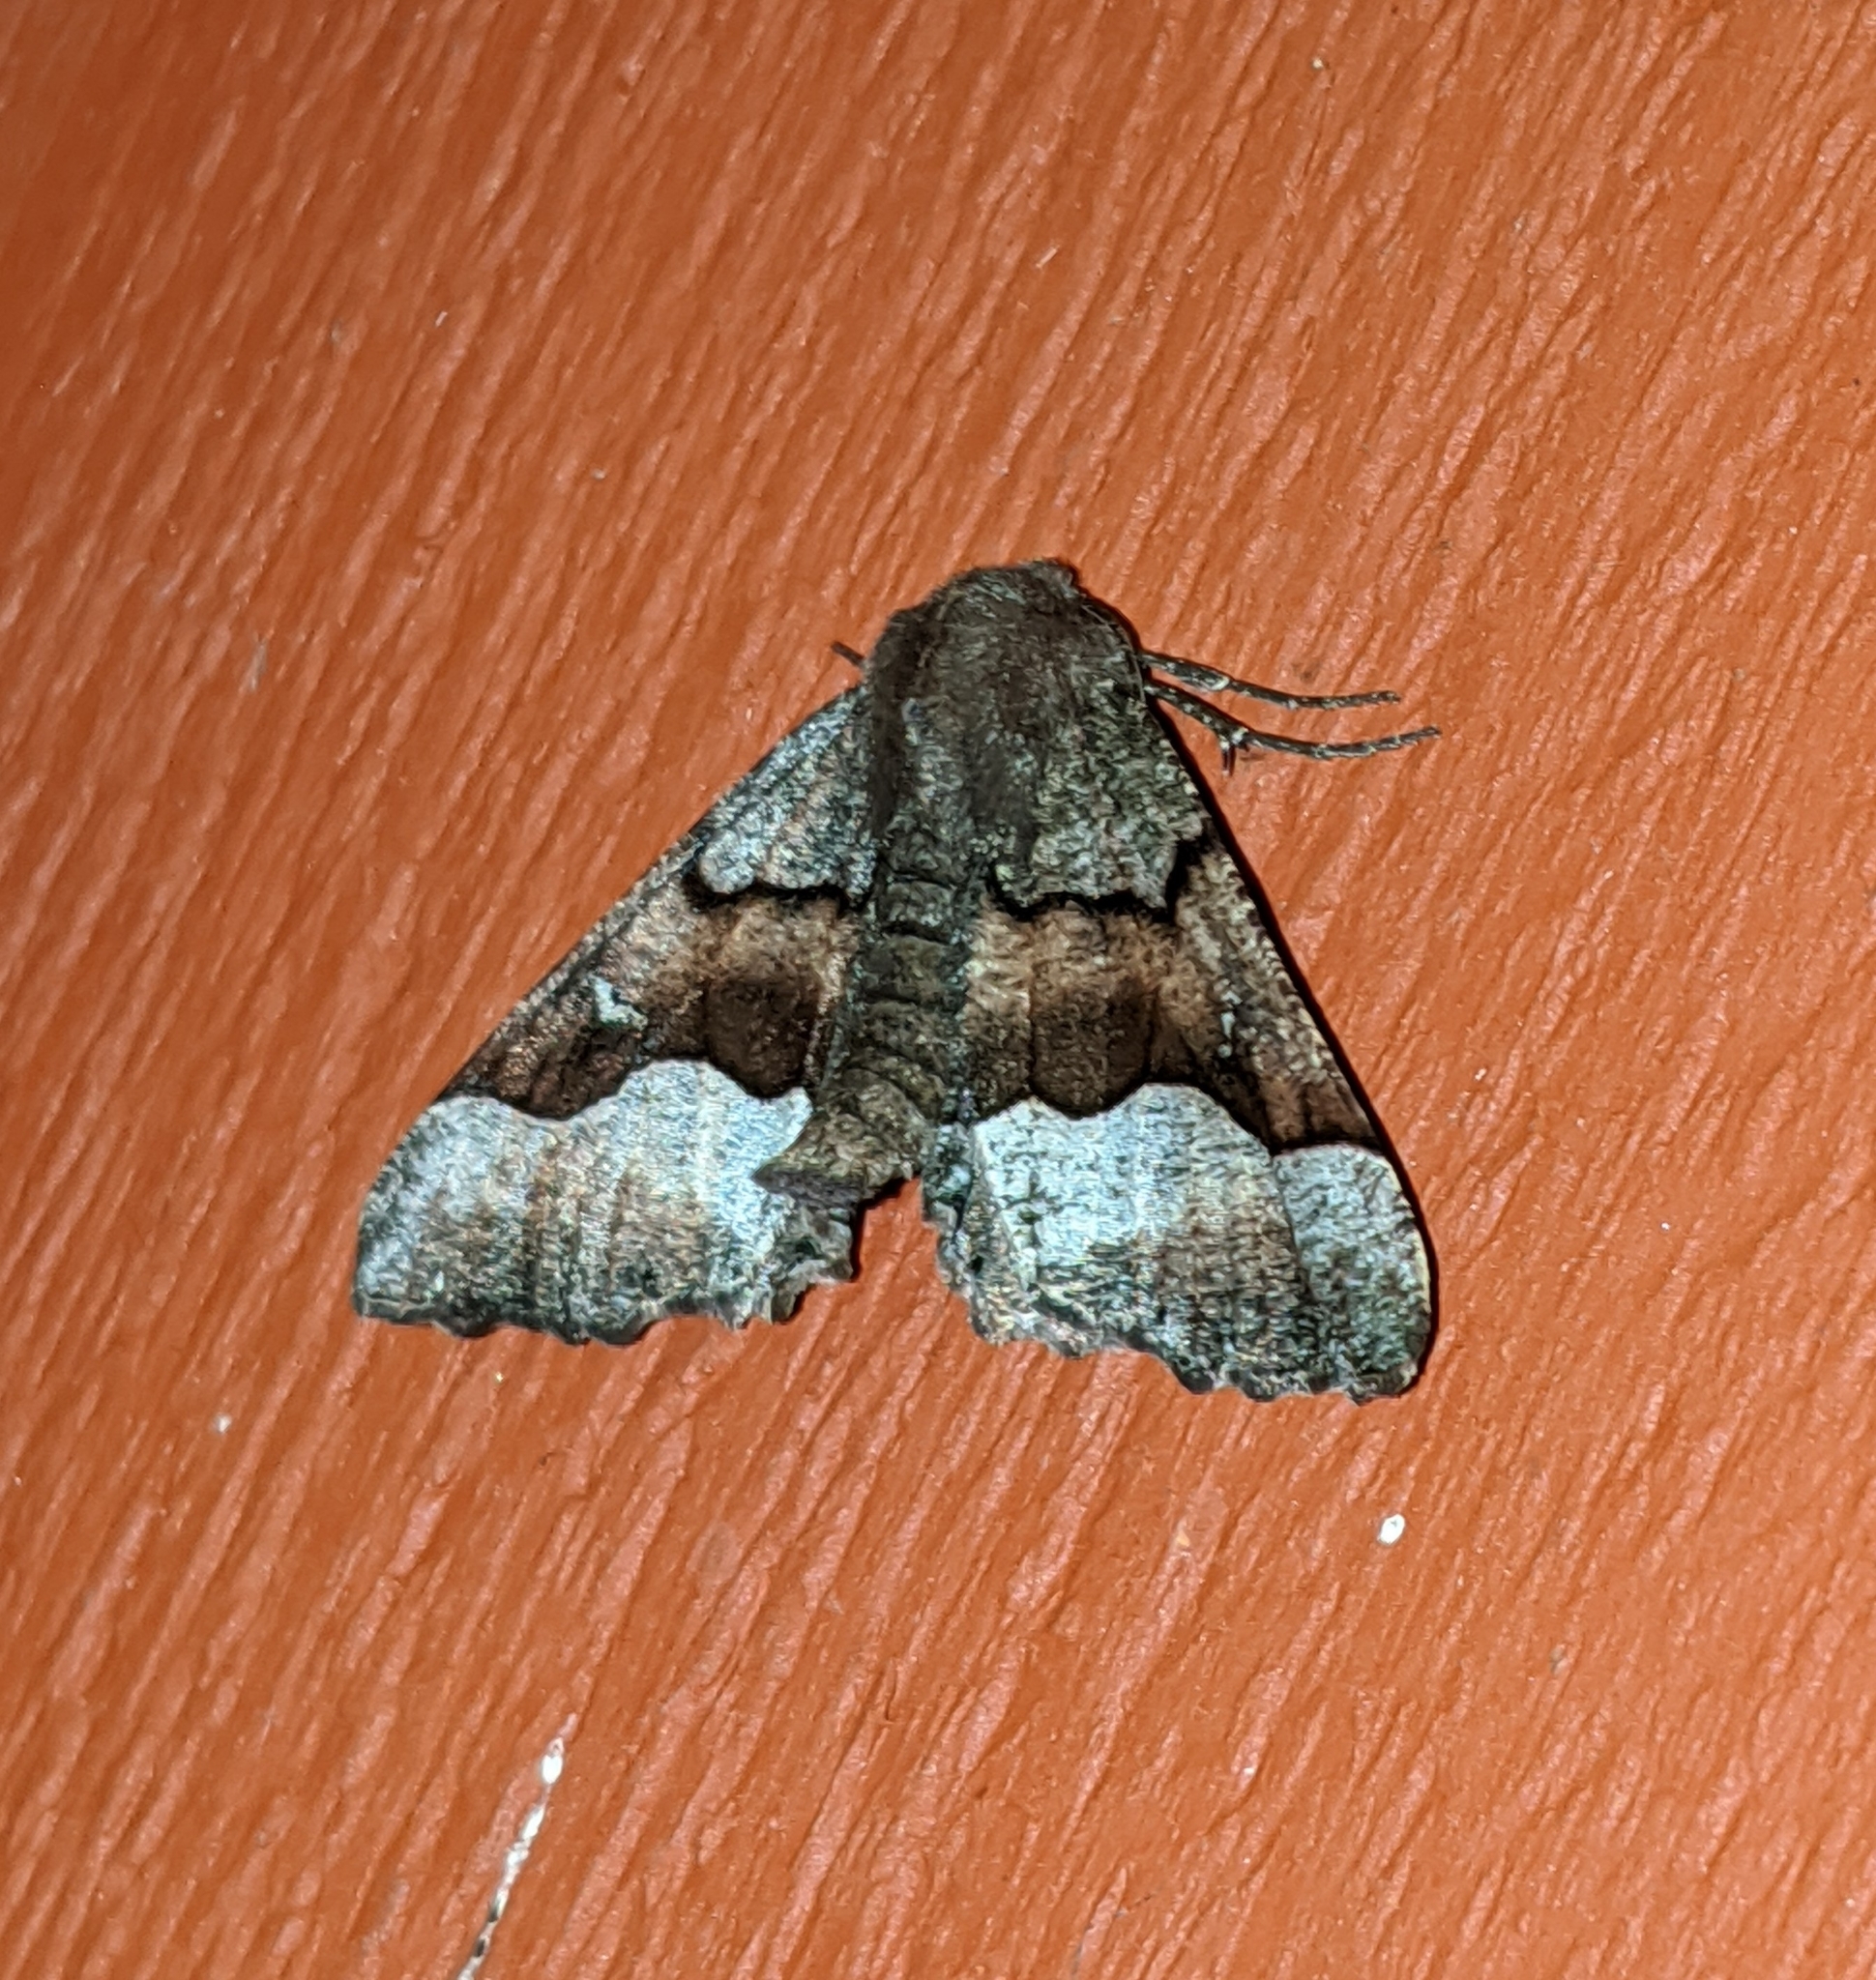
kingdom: Animalia
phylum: Arthropoda
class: Insecta
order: Lepidoptera
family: Geometridae
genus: Pero
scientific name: Pero behrensaria
